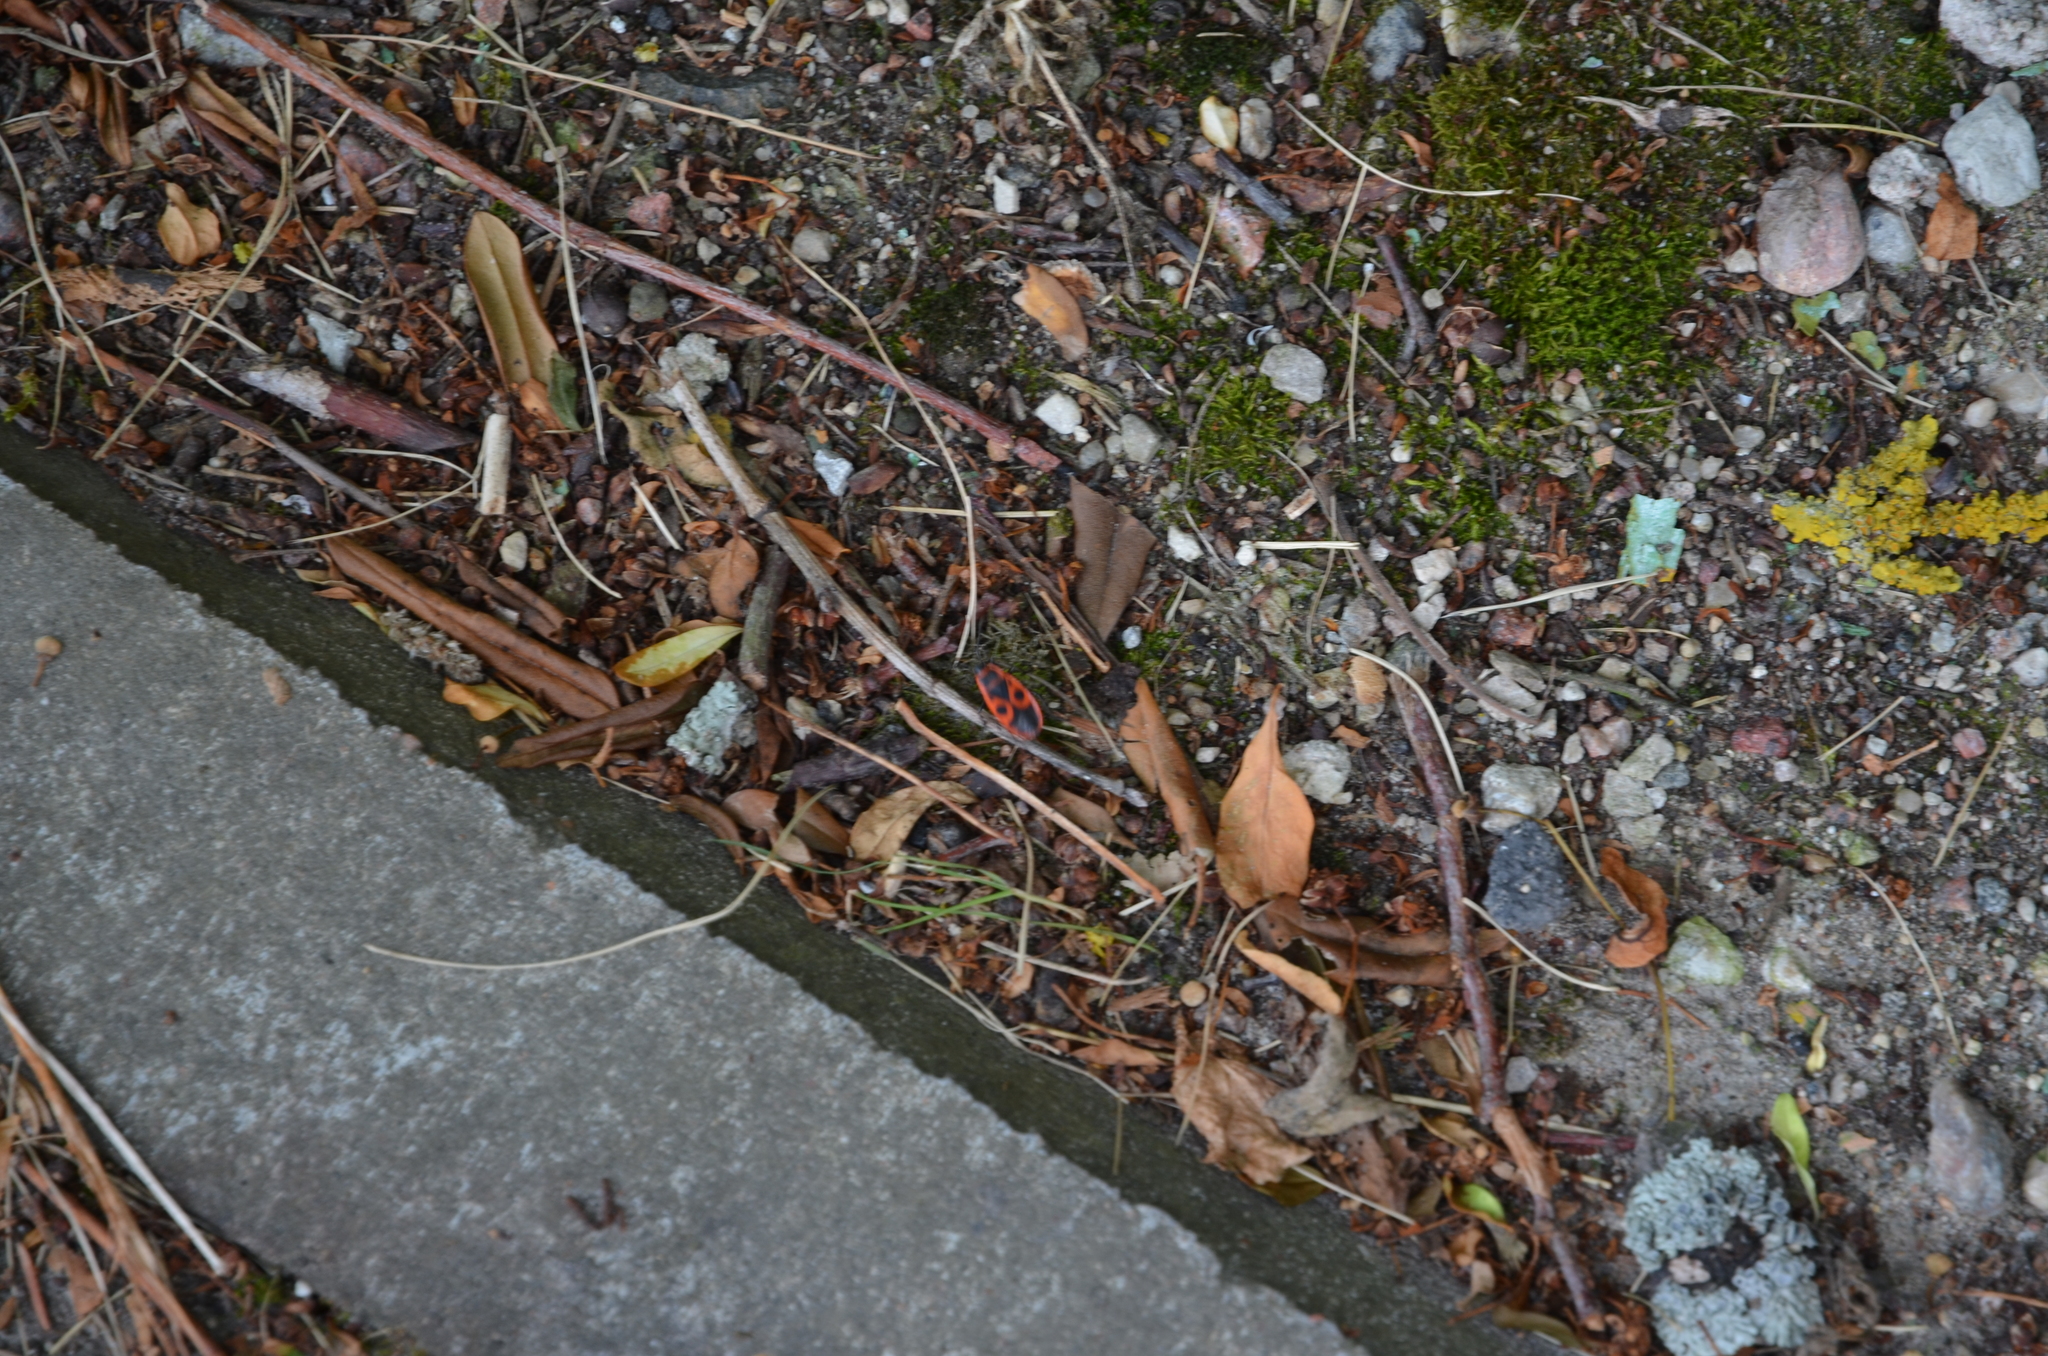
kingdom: Animalia
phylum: Arthropoda
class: Insecta
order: Hemiptera
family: Pyrrhocoridae
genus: Pyrrhocoris
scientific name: Pyrrhocoris apterus
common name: Firebug
